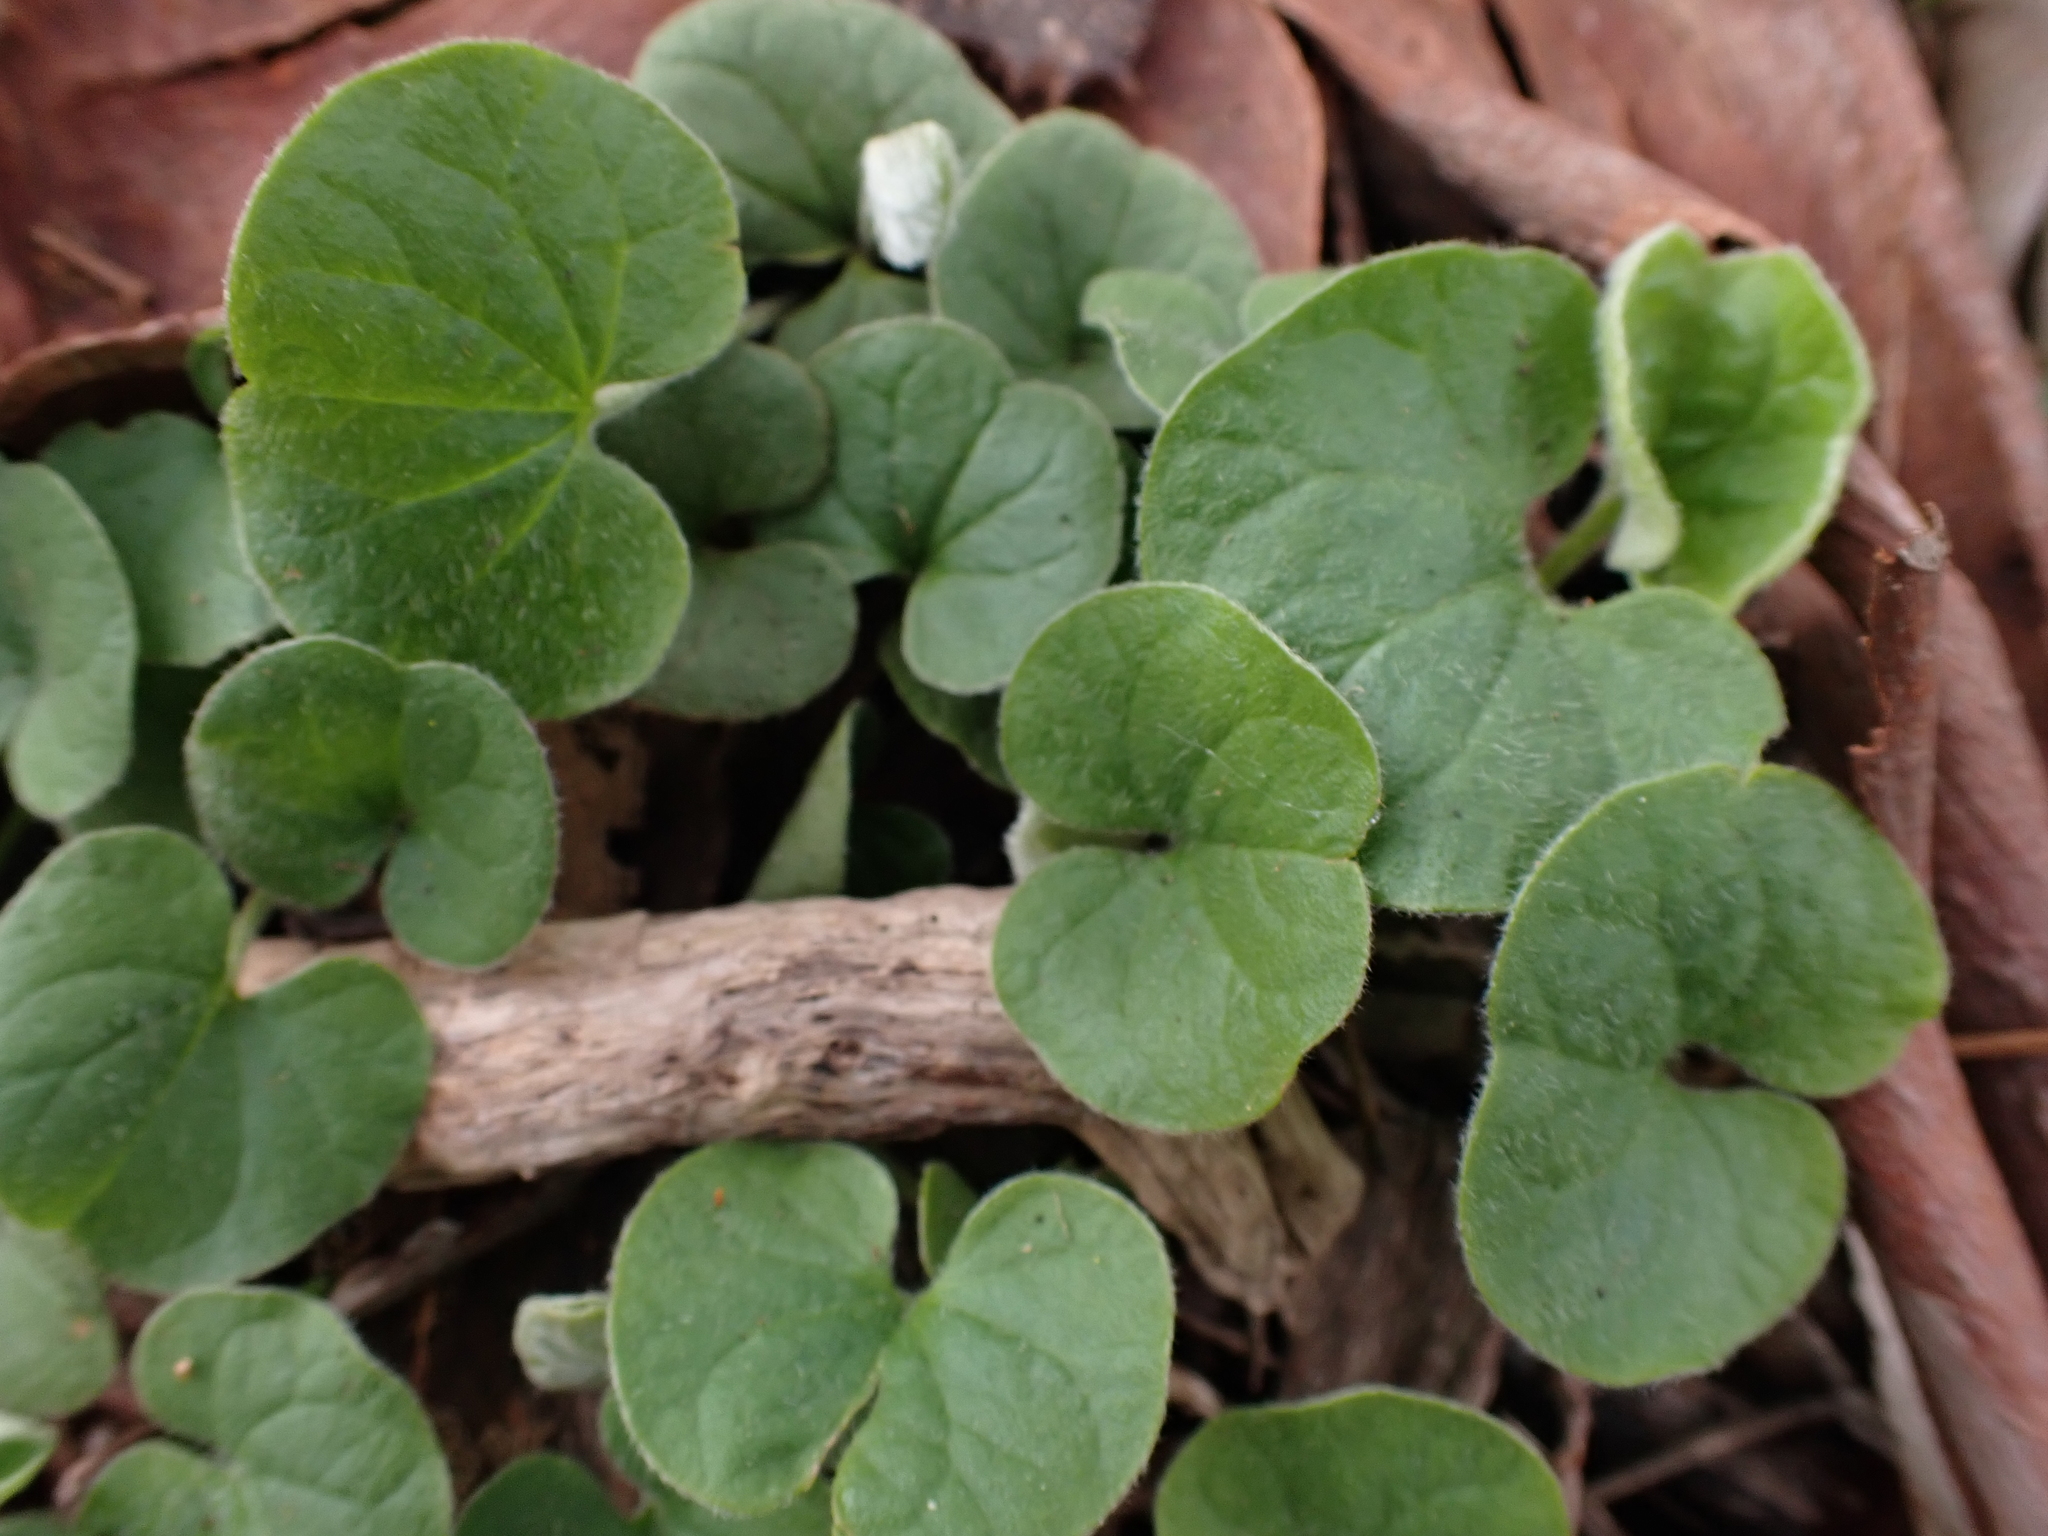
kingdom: Plantae
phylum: Tracheophyta
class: Magnoliopsida
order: Solanales
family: Convolvulaceae
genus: Dichondra
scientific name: Dichondra repens
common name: Kidneyweed
